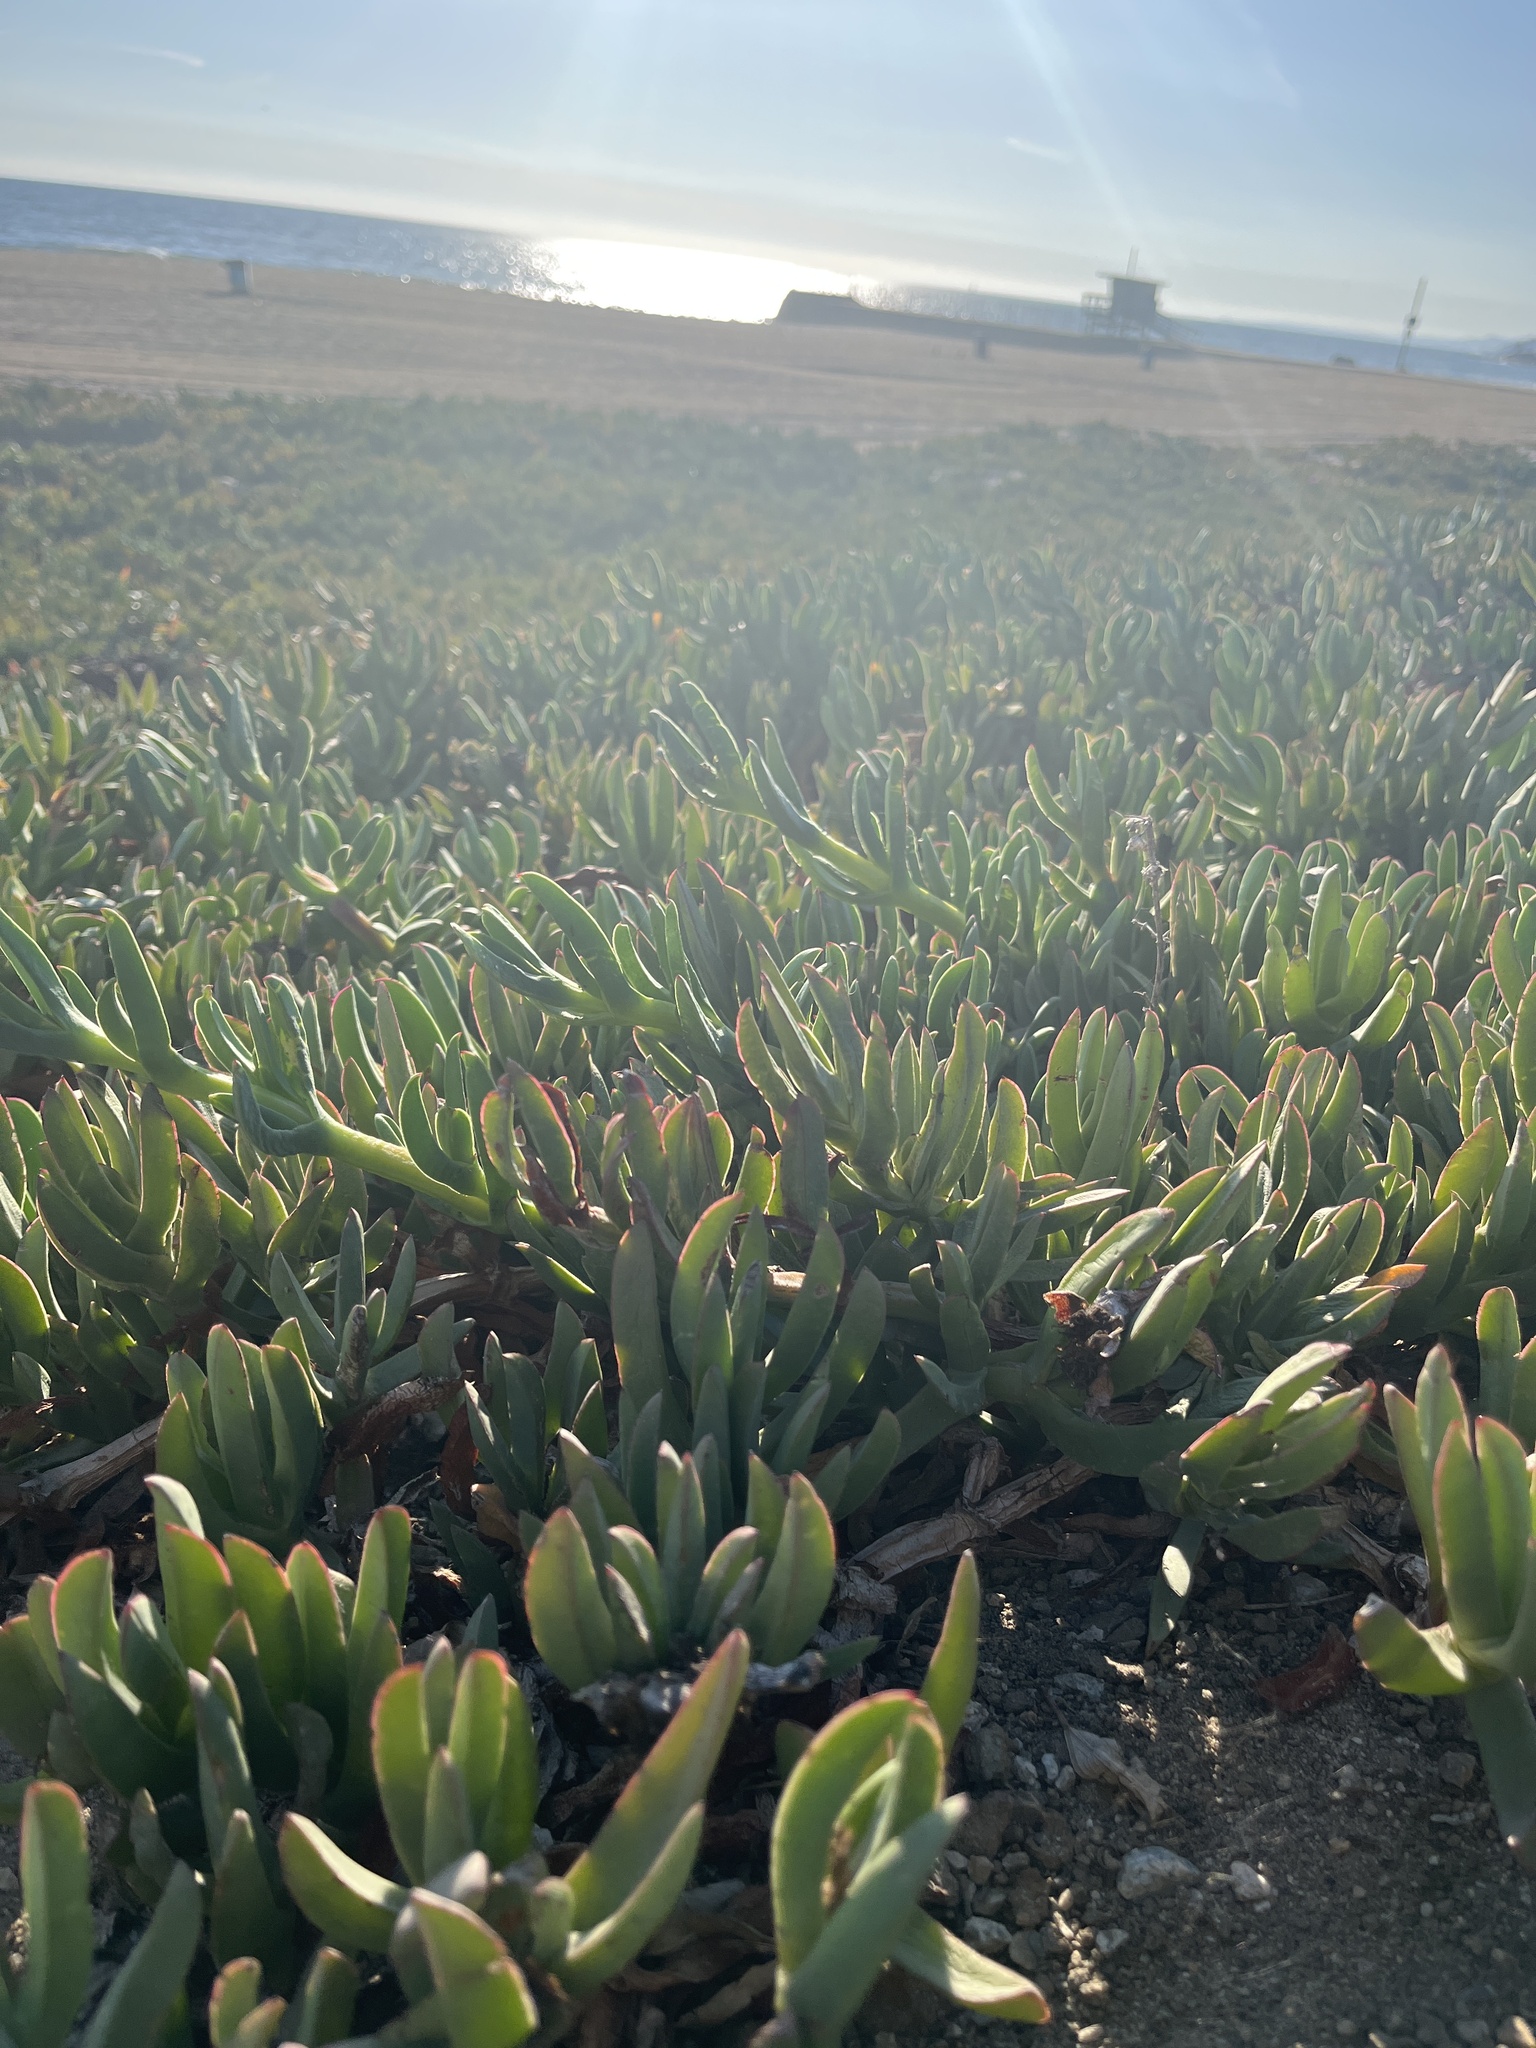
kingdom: Plantae
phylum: Tracheophyta
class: Magnoliopsida
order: Caryophyllales
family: Aizoaceae
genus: Carpobrotus
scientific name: Carpobrotus edulis
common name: Hottentot-fig
